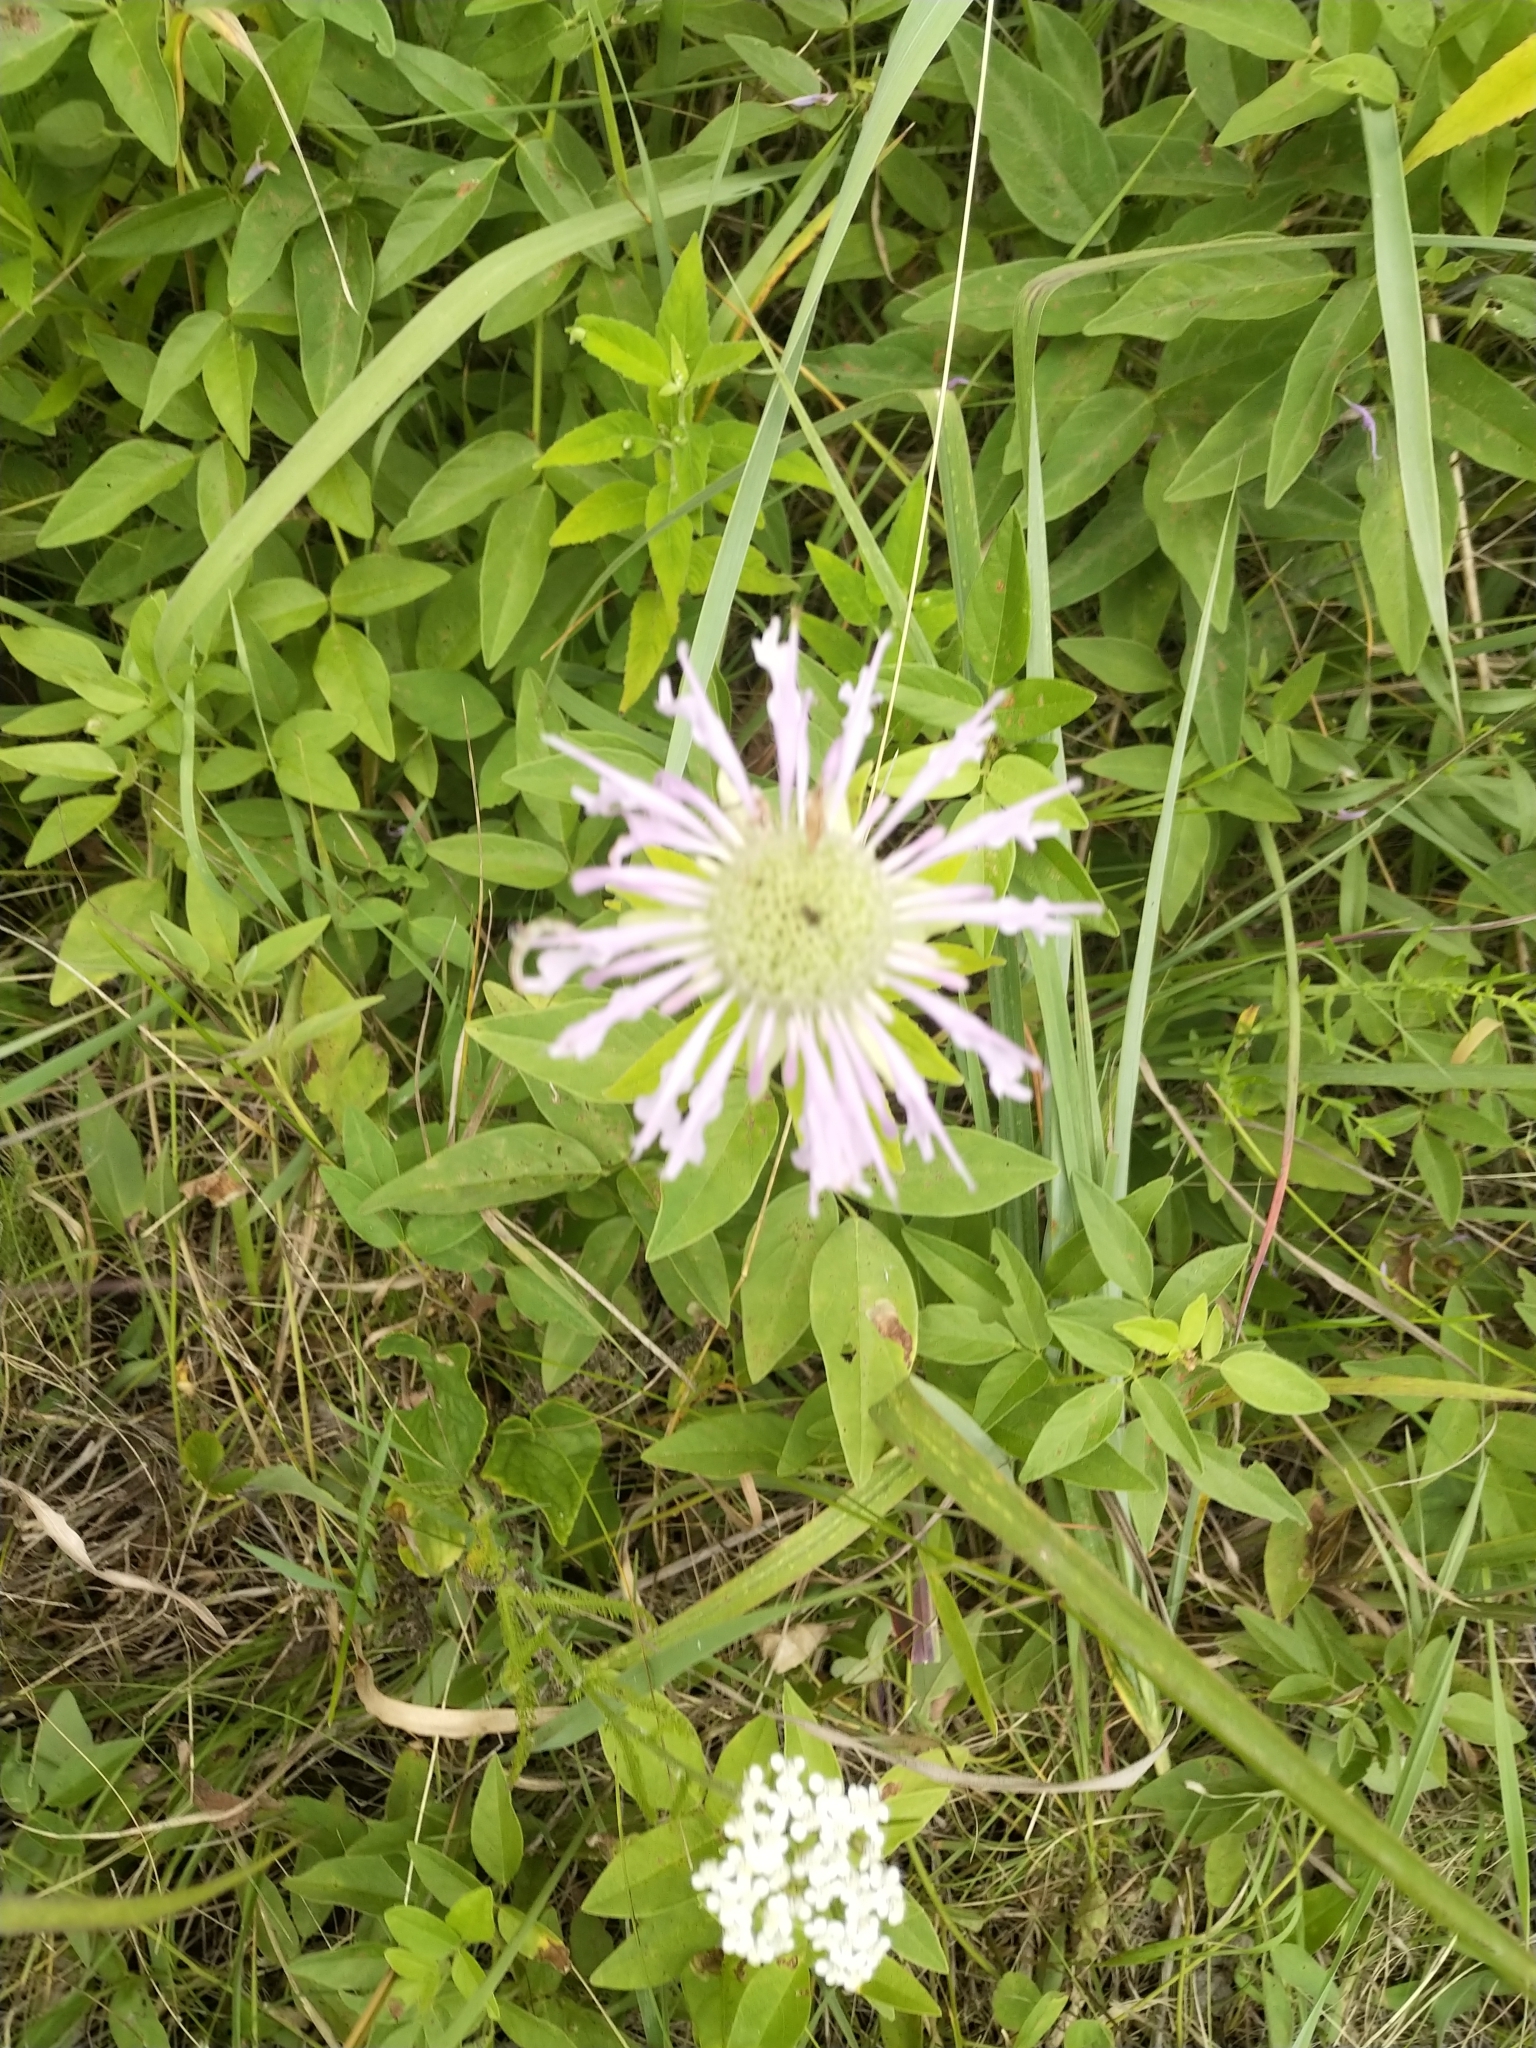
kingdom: Plantae
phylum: Tracheophyta
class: Magnoliopsida
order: Lamiales
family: Lamiaceae
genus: Monarda
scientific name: Monarda fistulosa
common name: Purple beebalm
